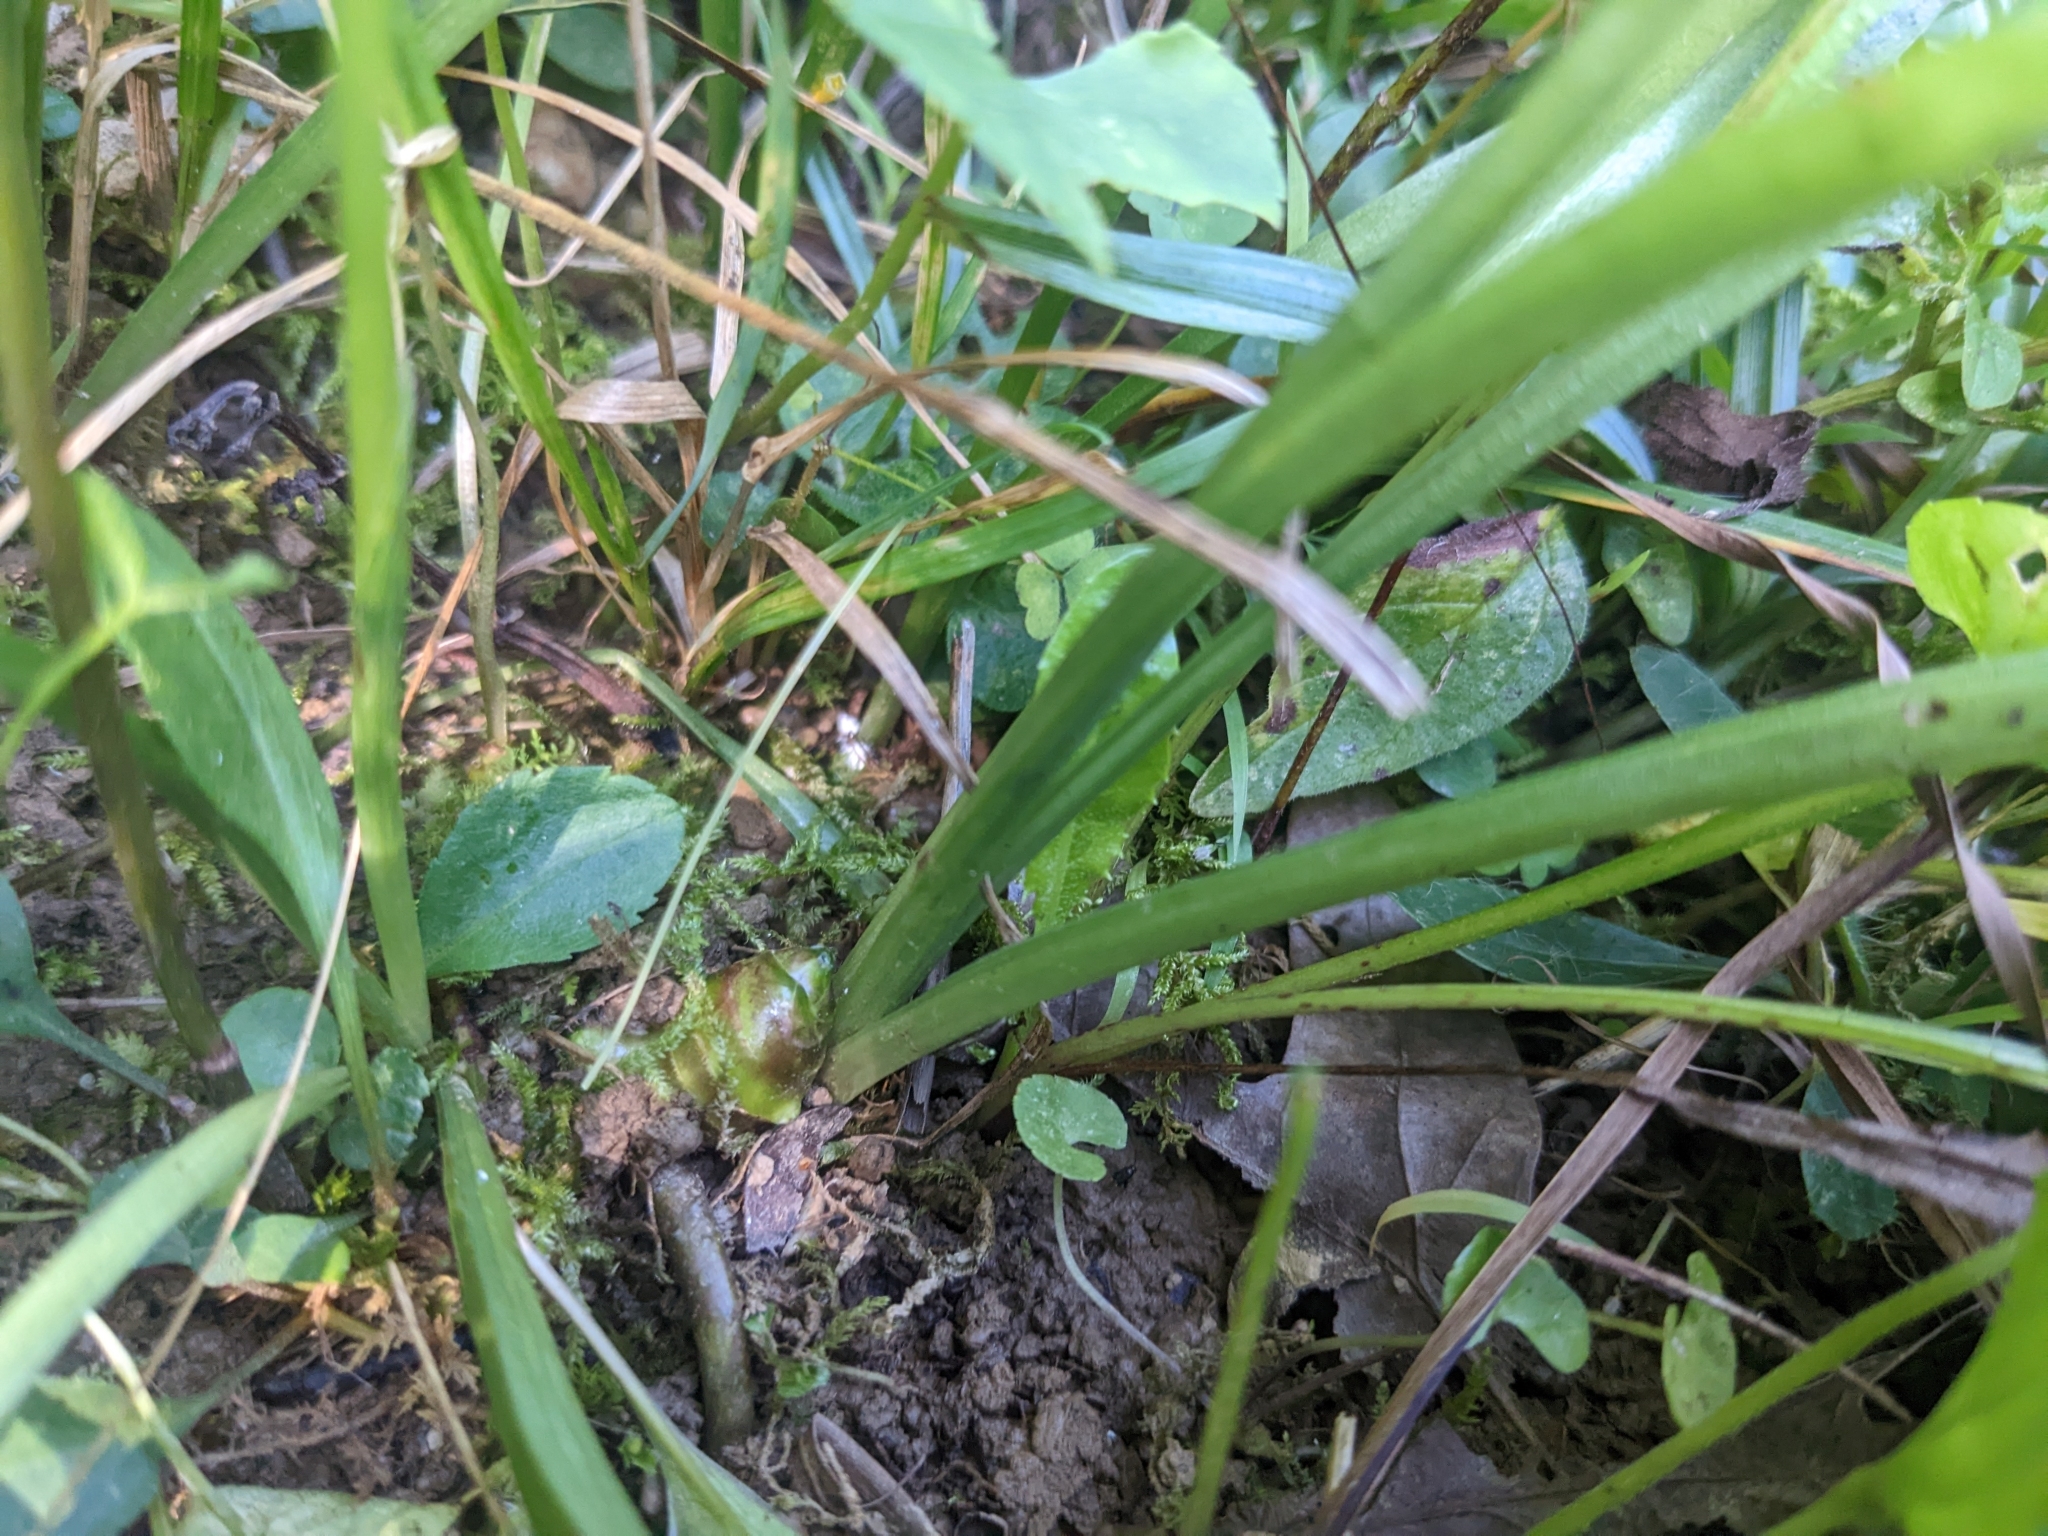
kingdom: Plantae
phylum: Tracheophyta
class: Liliopsida
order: Asparagales
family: Orchidaceae
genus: Spiranthes
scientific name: Spiranthes arcisepala
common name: Appalachian ladies'-tresses
